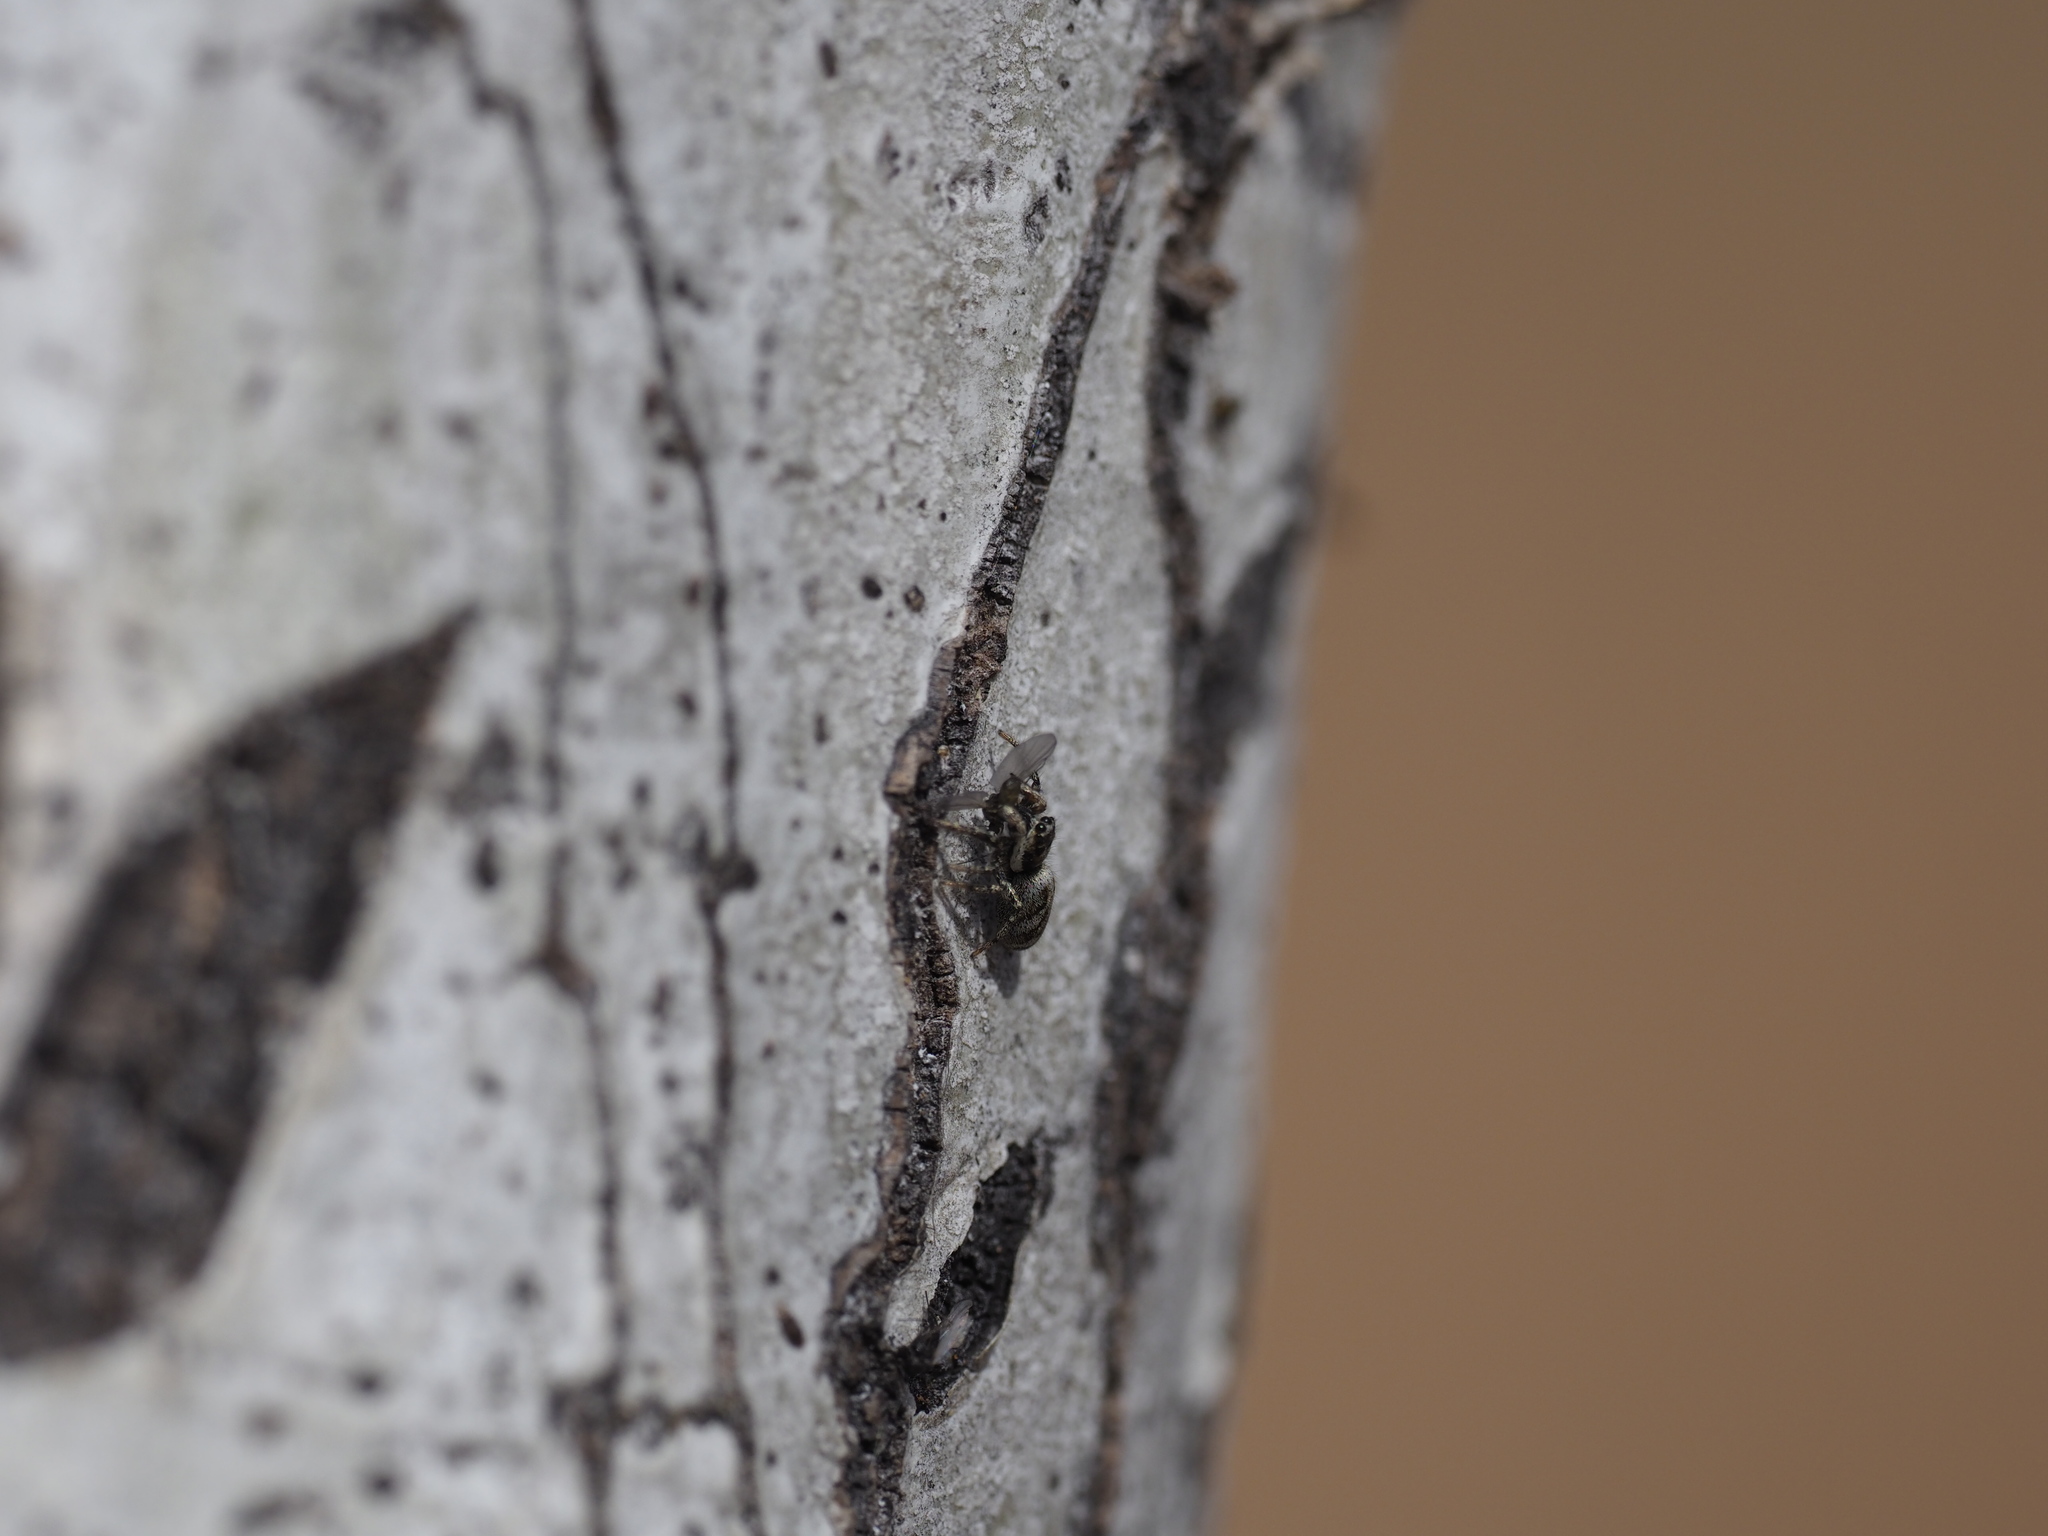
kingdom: Animalia
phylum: Arthropoda
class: Arachnida
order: Araneae
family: Salticidae
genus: Salticus
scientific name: Salticus scenicus
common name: Zebra jumper
